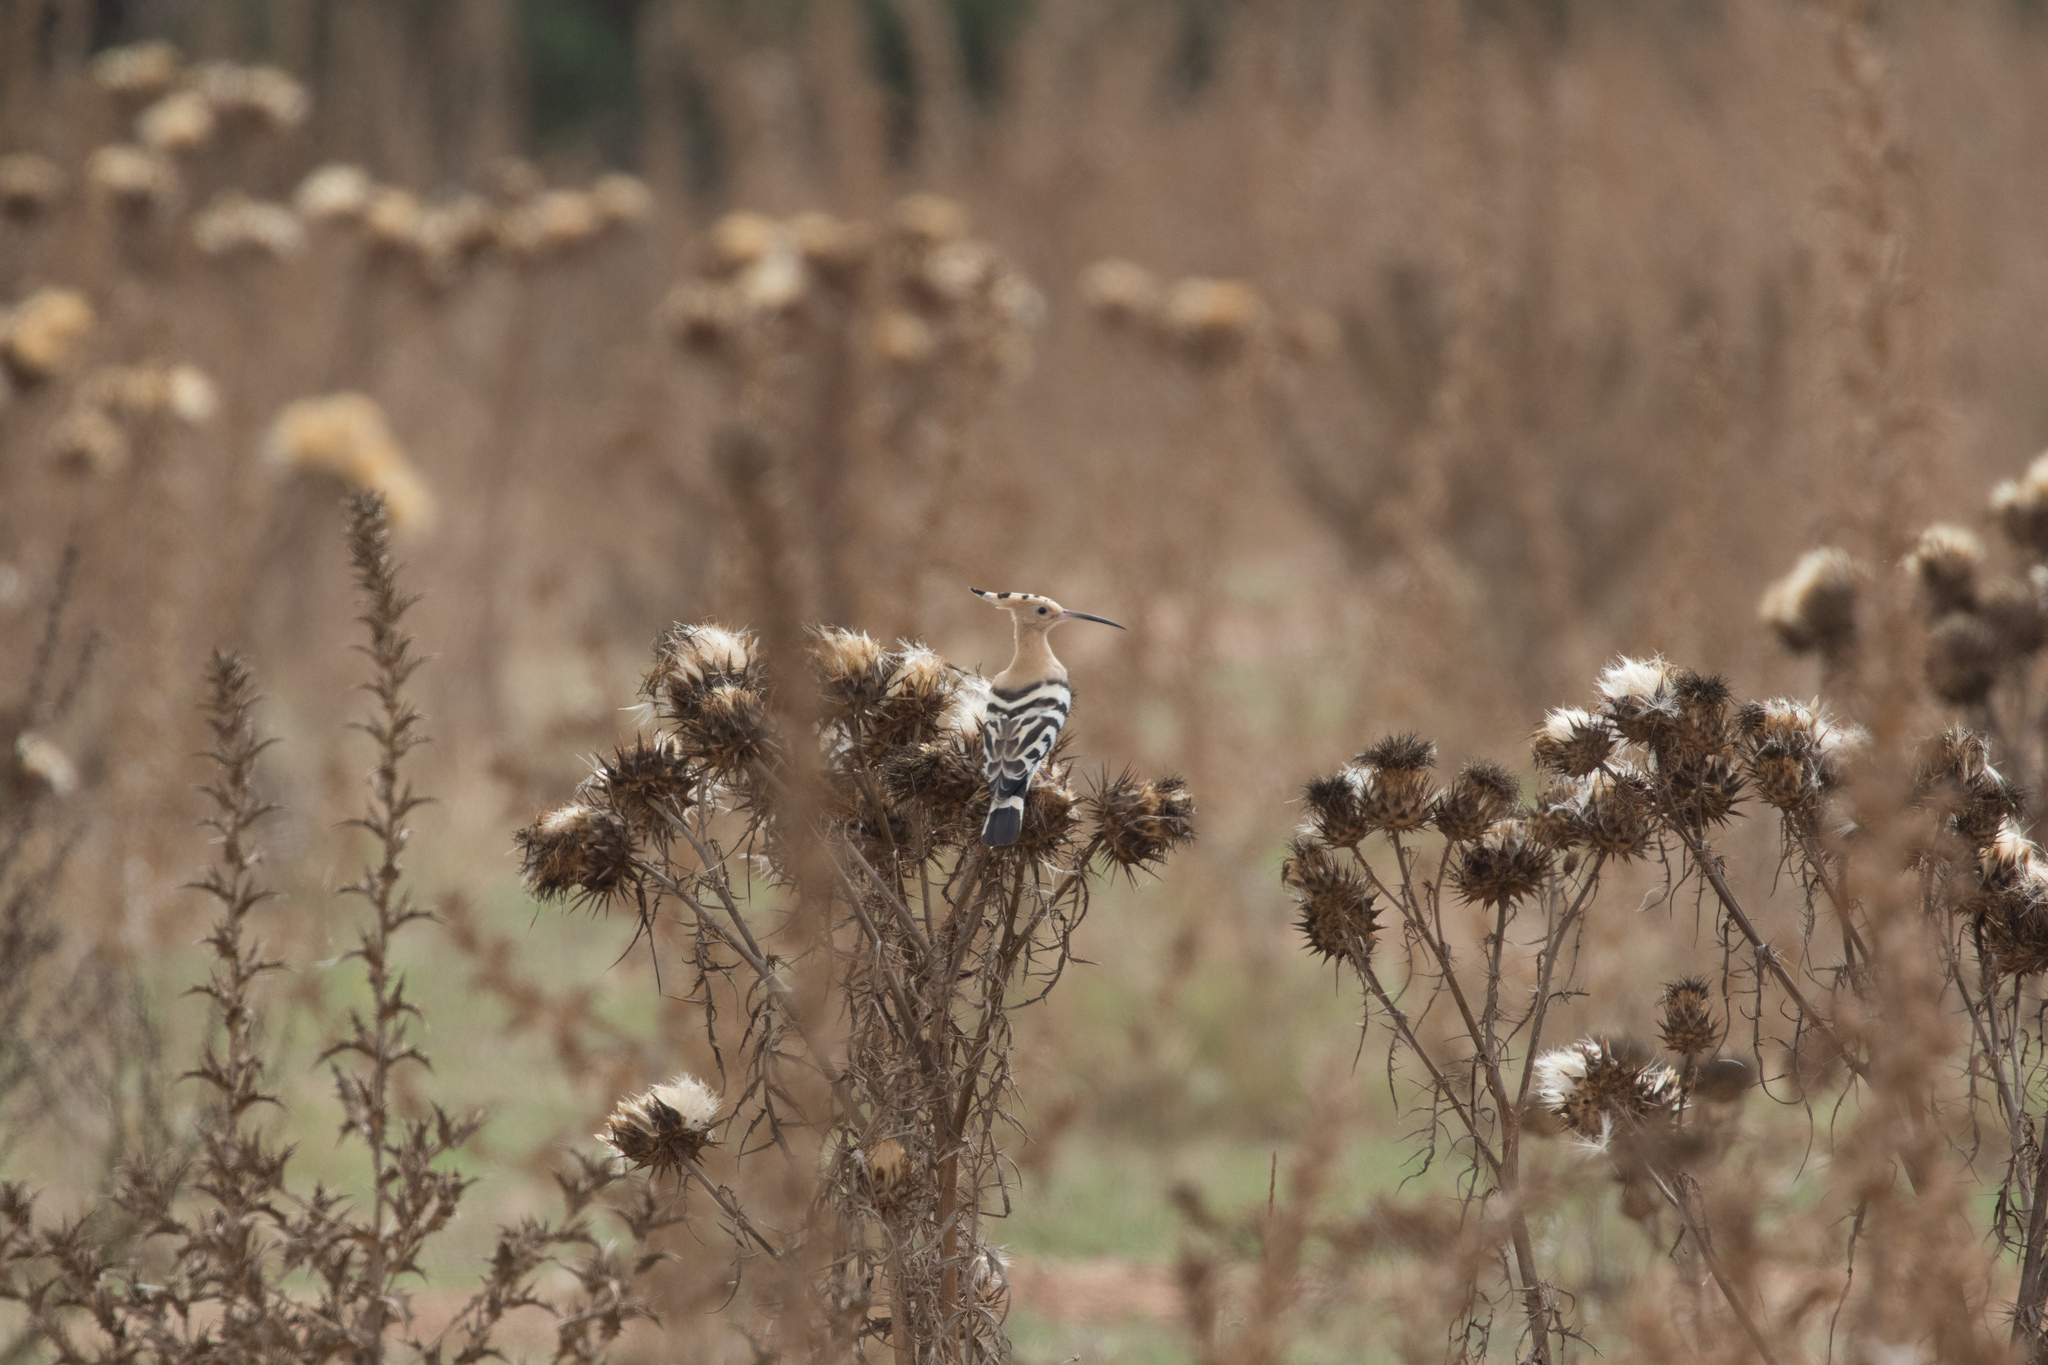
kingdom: Animalia
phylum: Chordata
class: Aves
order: Bucerotiformes
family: Upupidae
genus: Upupa
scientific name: Upupa epops
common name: Eurasian hoopoe
